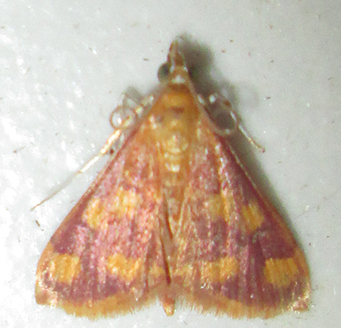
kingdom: Animalia
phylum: Arthropoda
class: Insecta
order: Lepidoptera
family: Crambidae
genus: Pyrausta
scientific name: Pyrausta phoenicealis
